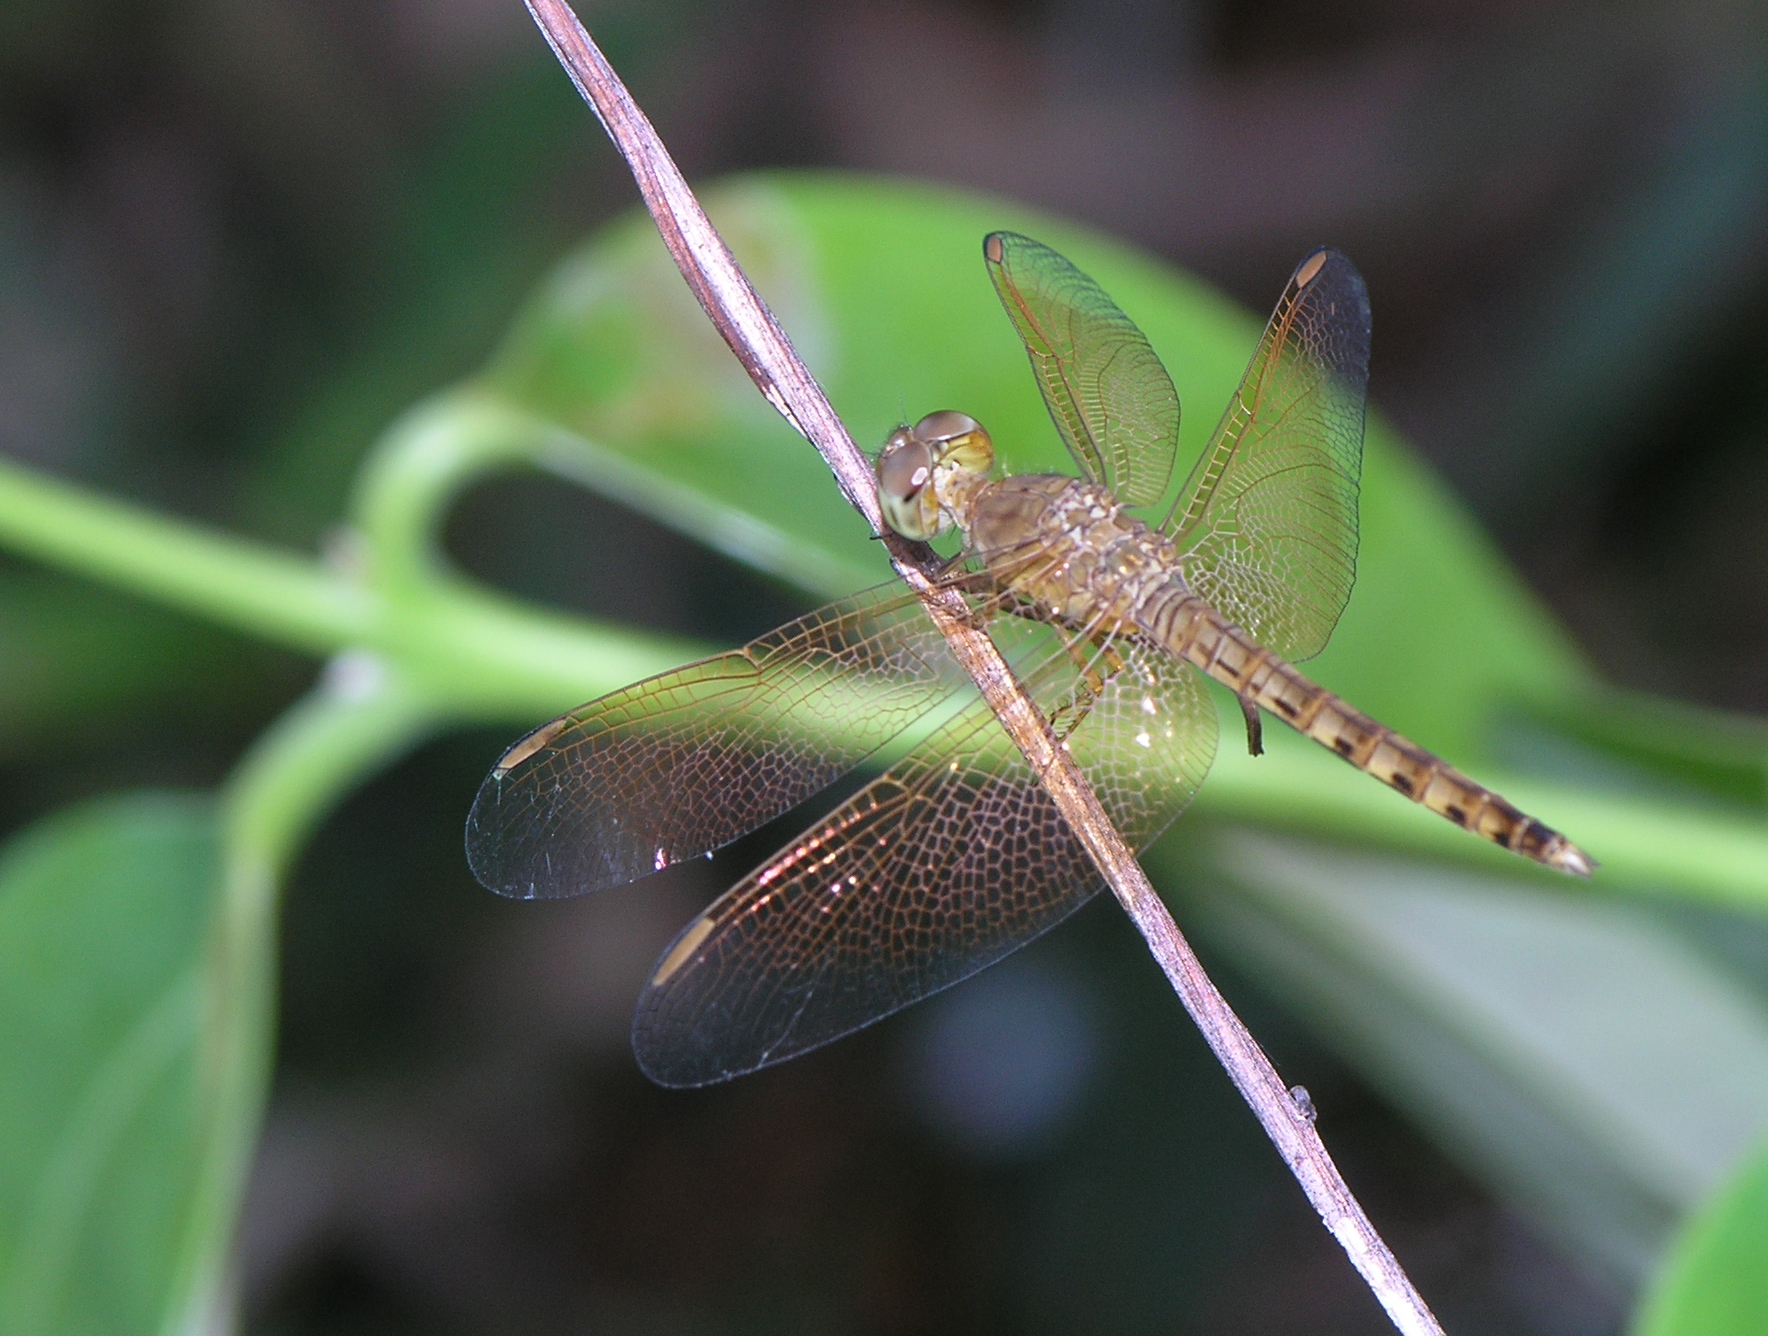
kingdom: Animalia
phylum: Arthropoda
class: Insecta
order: Odonata
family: Libellulidae
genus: Neurothemis
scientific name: Neurothemis fluctuans
